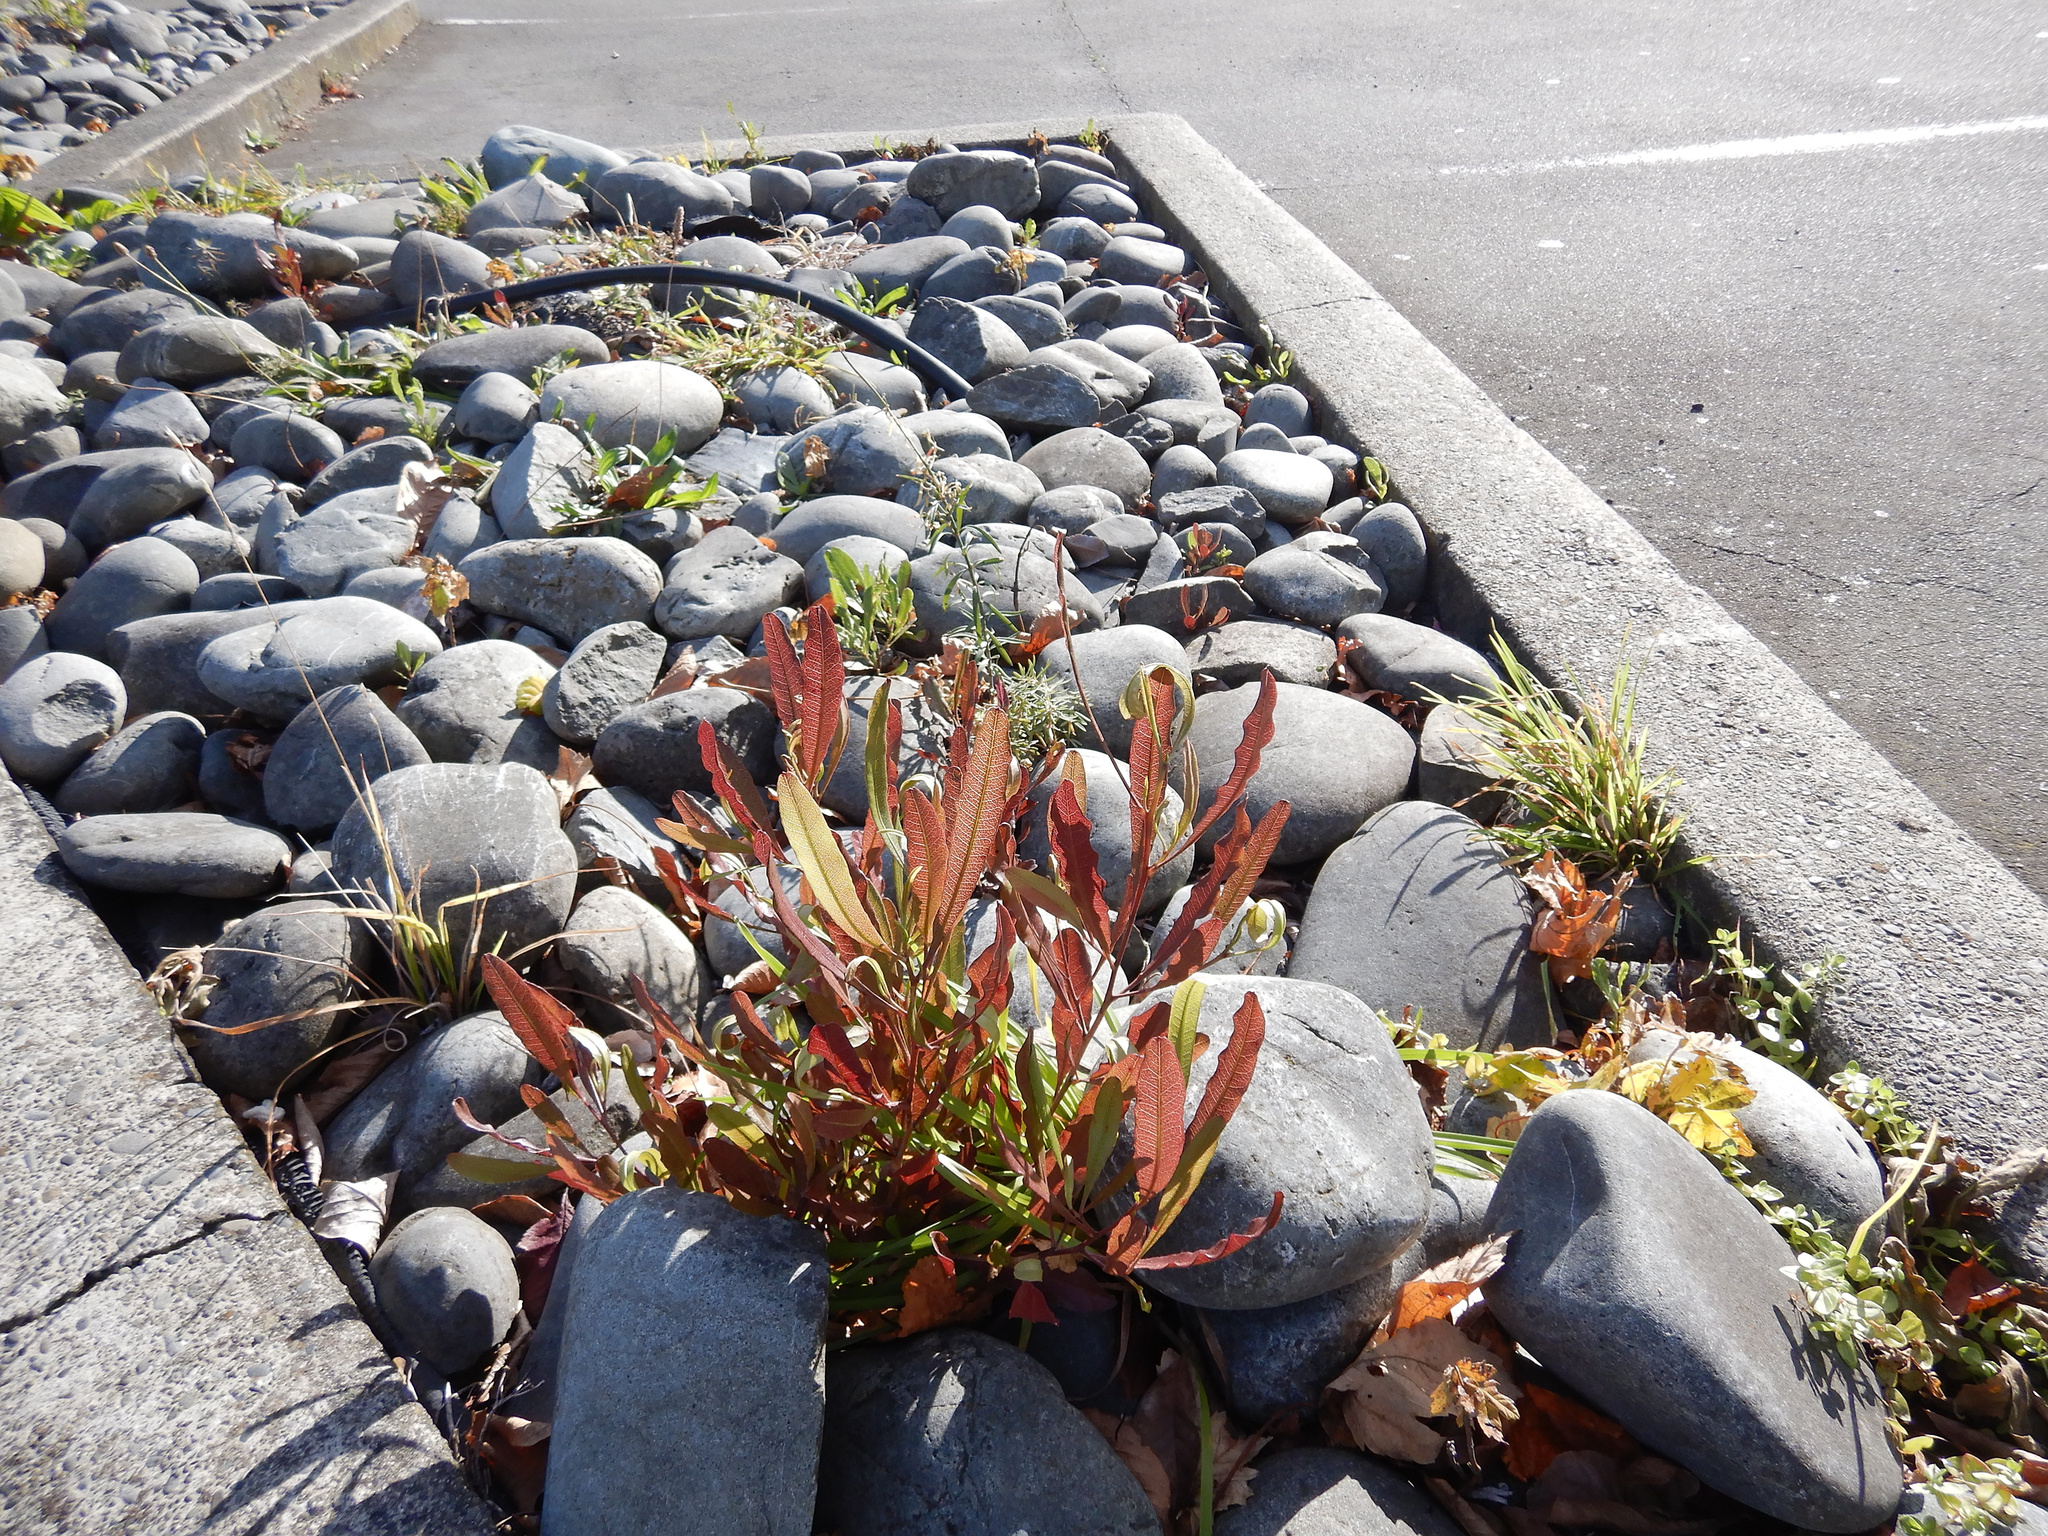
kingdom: Plantae
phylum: Tracheophyta
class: Magnoliopsida
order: Sapindales
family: Sapindaceae
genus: Dodonaea
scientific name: Dodonaea viscosa
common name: Hopbush
